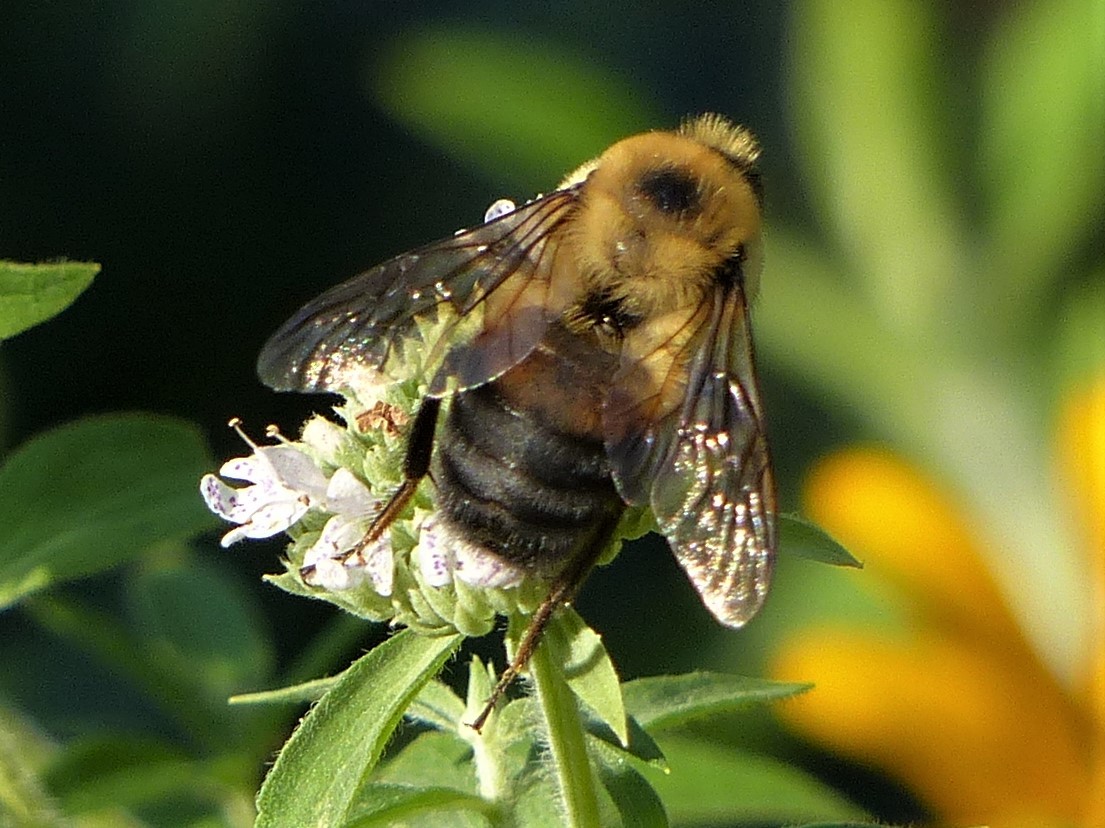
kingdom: Animalia
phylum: Arthropoda
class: Insecta
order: Hymenoptera
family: Apidae
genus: Bombus
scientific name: Bombus griseocollis
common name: Brown-belted bumble bee
